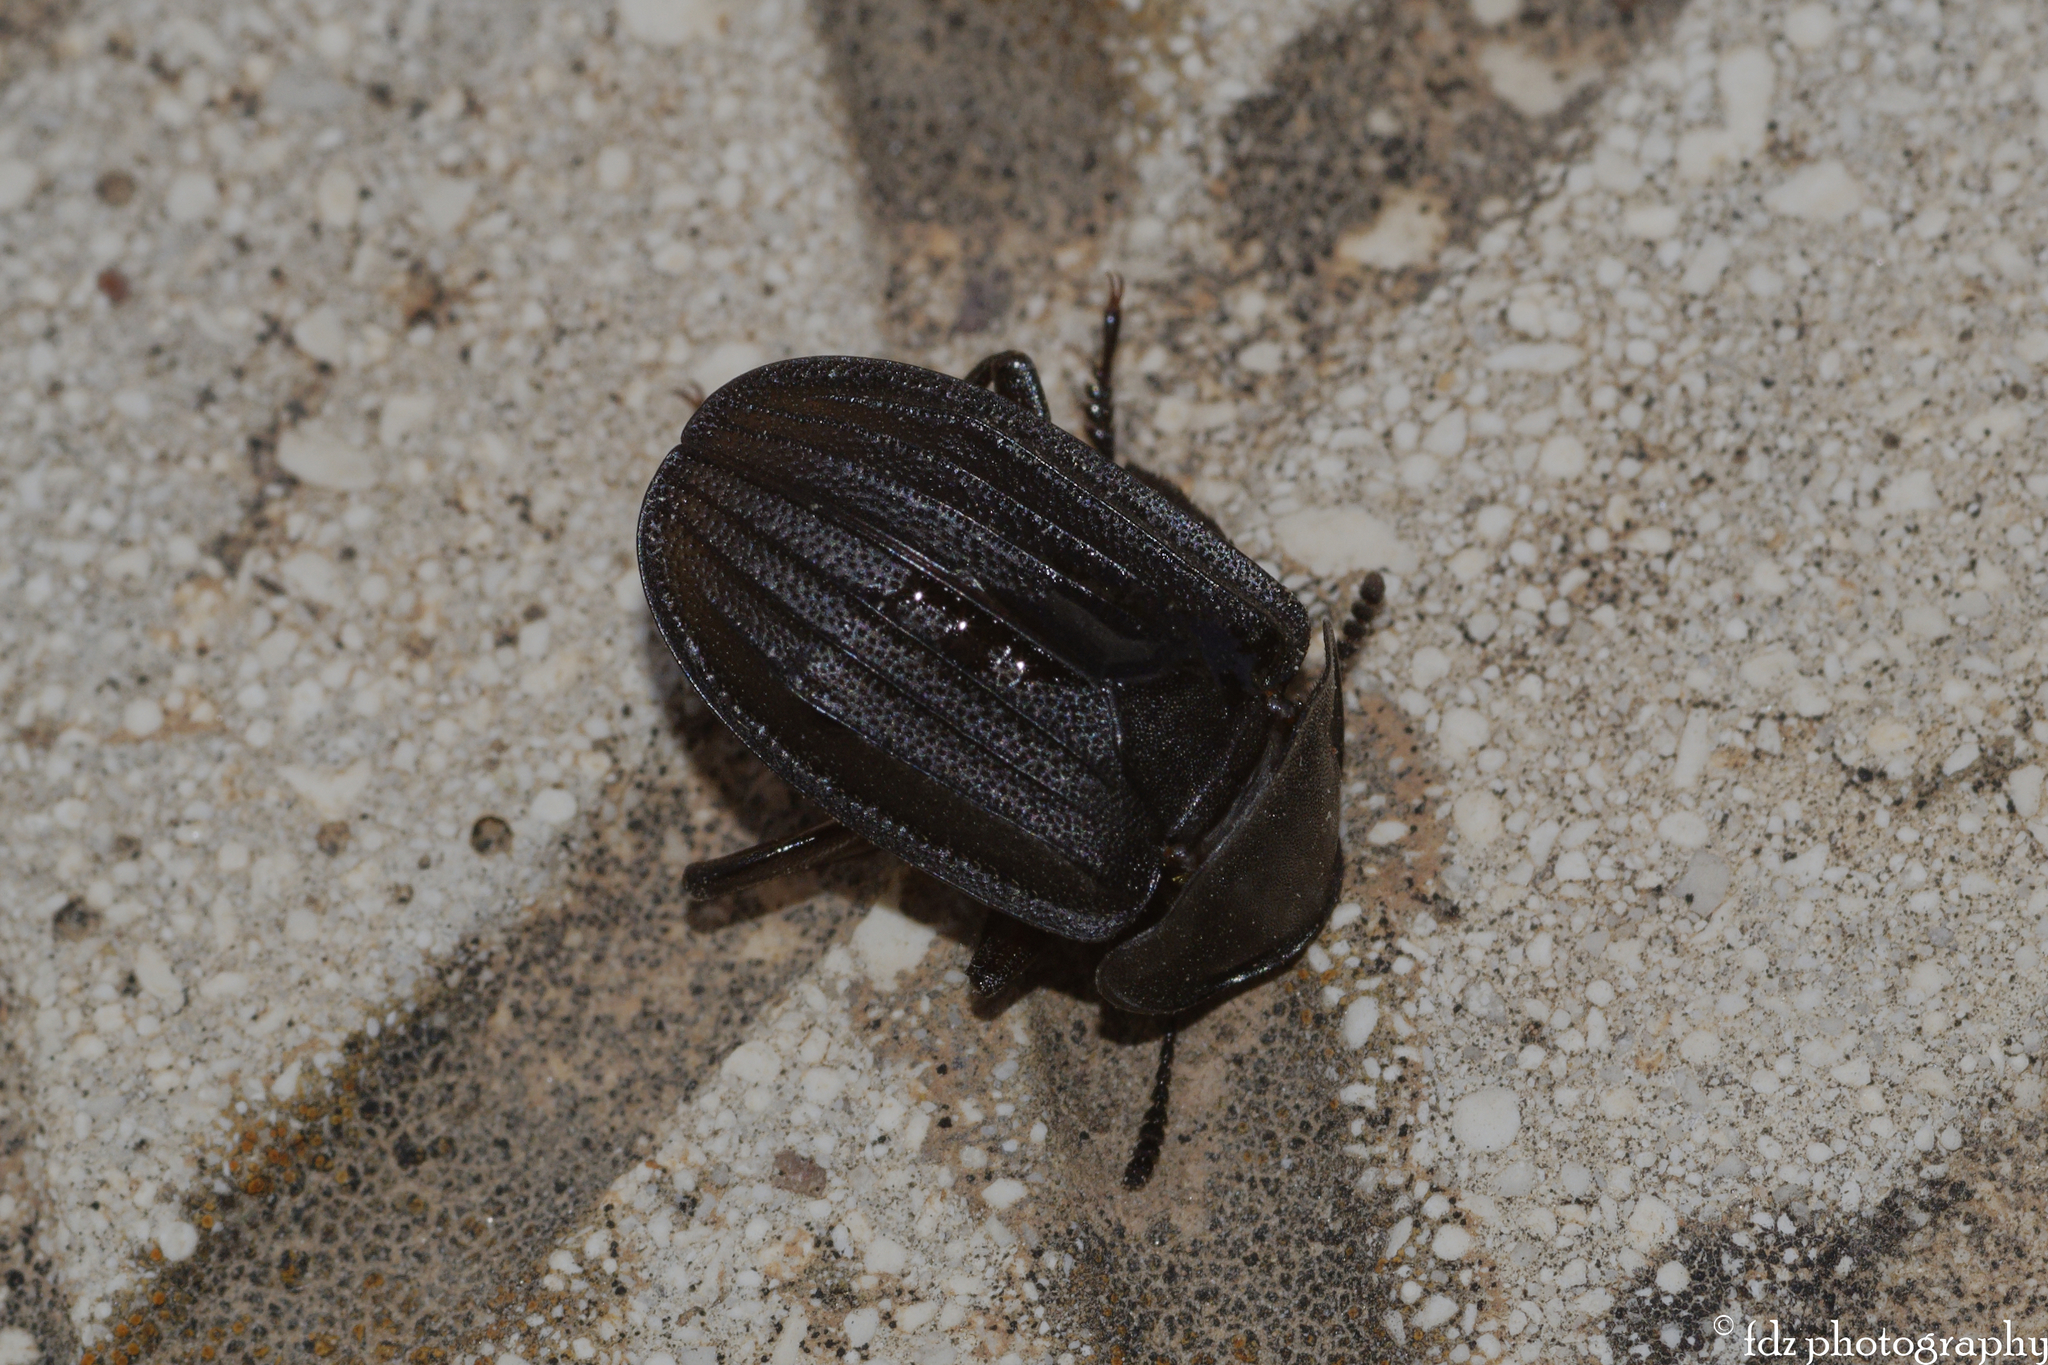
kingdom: Animalia
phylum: Arthropoda
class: Insecta
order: Coleoptera
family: Staphylinidae
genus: Silpha
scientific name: Silpha puncticollis
